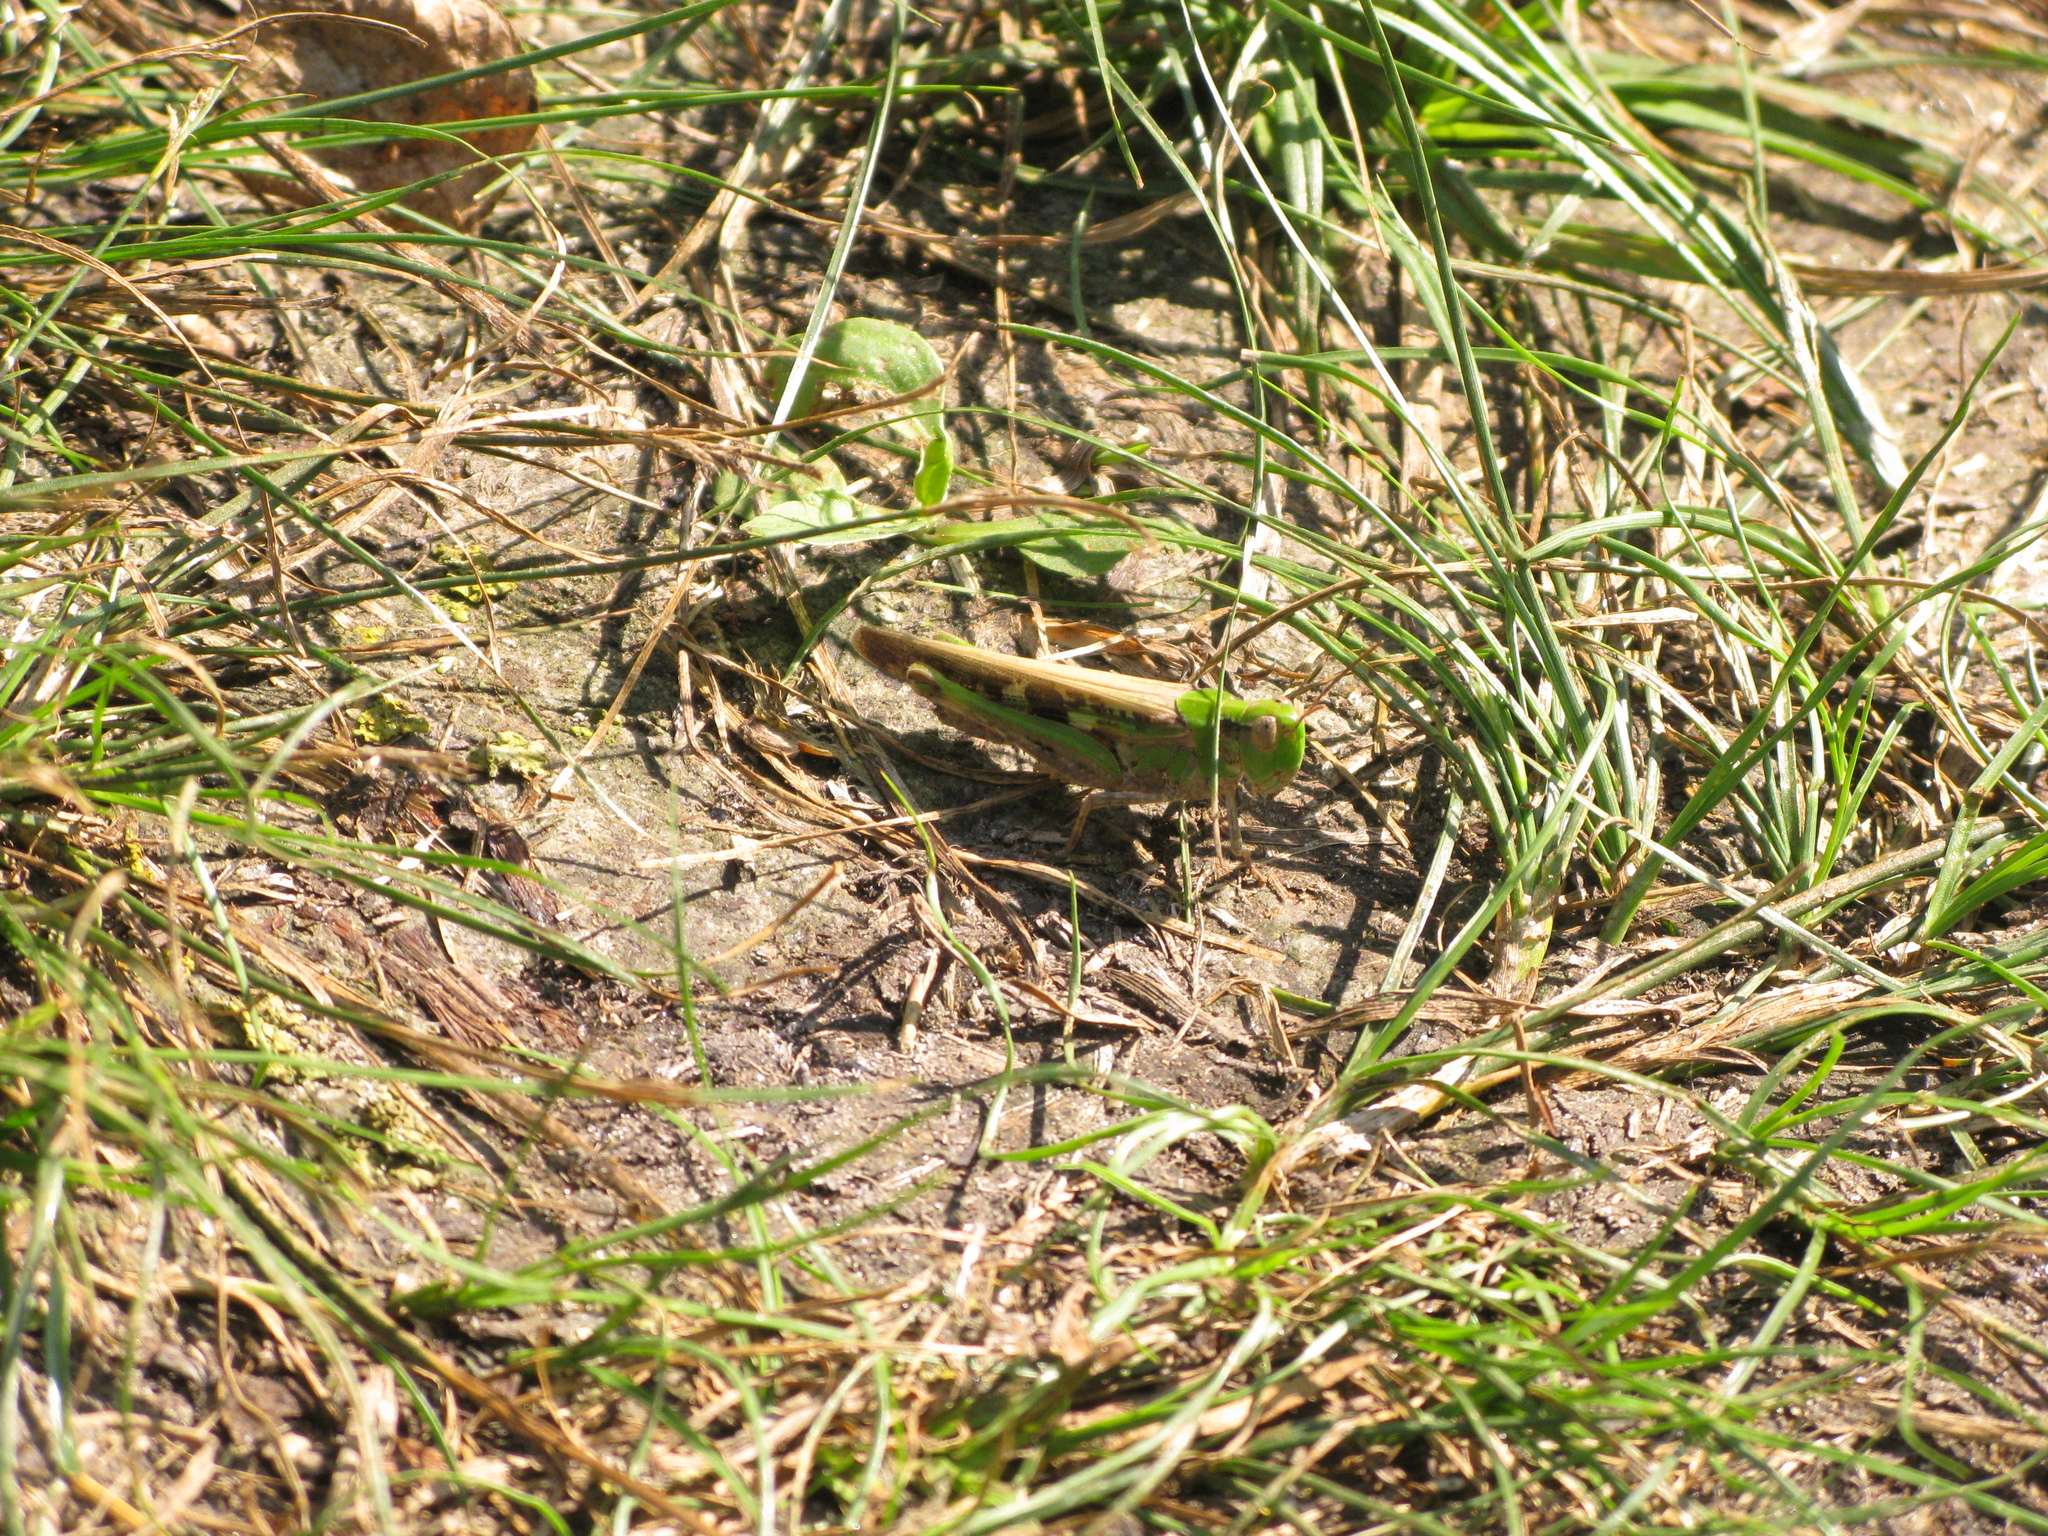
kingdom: Animalia
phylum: Arthropoda
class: Insecta
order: Orthoptera
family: Acrididae
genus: Aiolopus
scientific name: Aiolopus thalassinus
